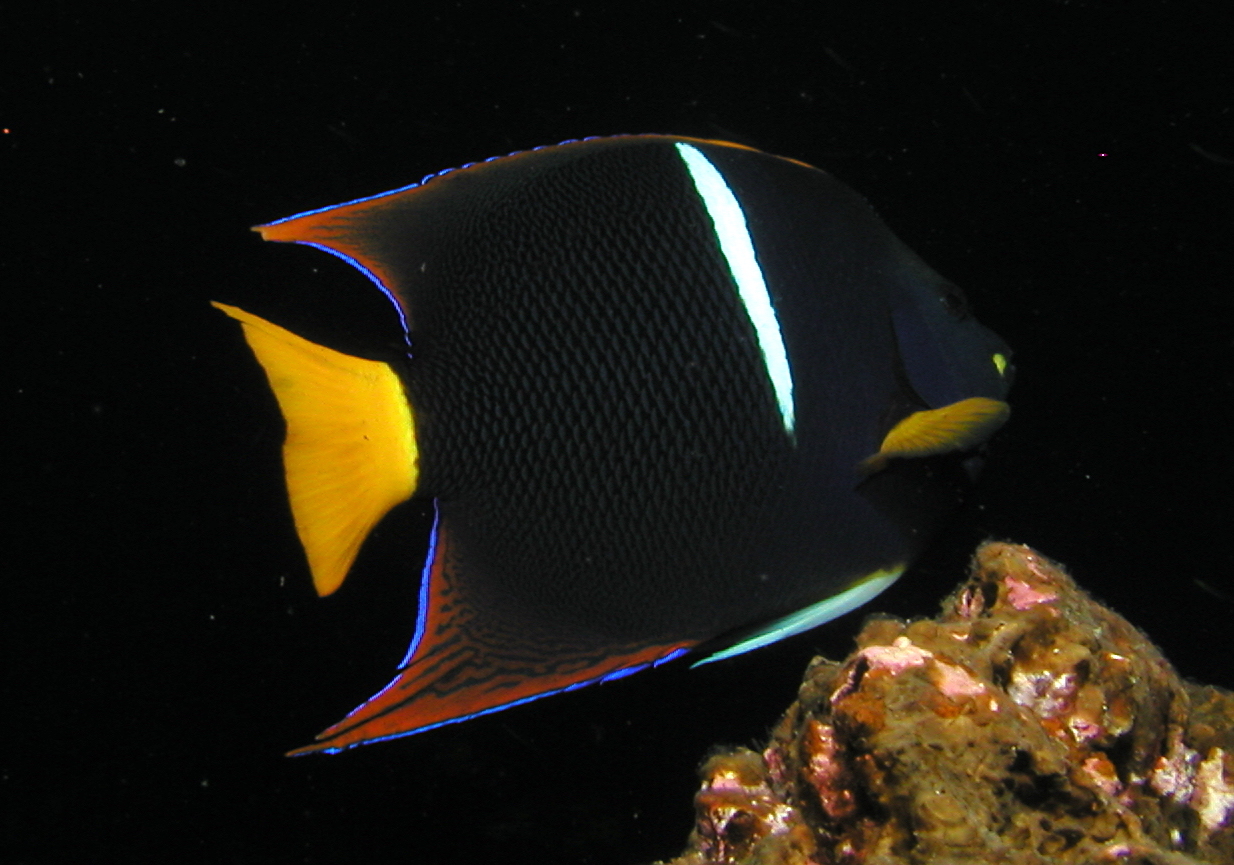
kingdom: Animalia
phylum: Chordata
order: Perciformes
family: Pomacanthidae
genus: Holacanthus
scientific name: Holacanthus passer
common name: King angelfish
